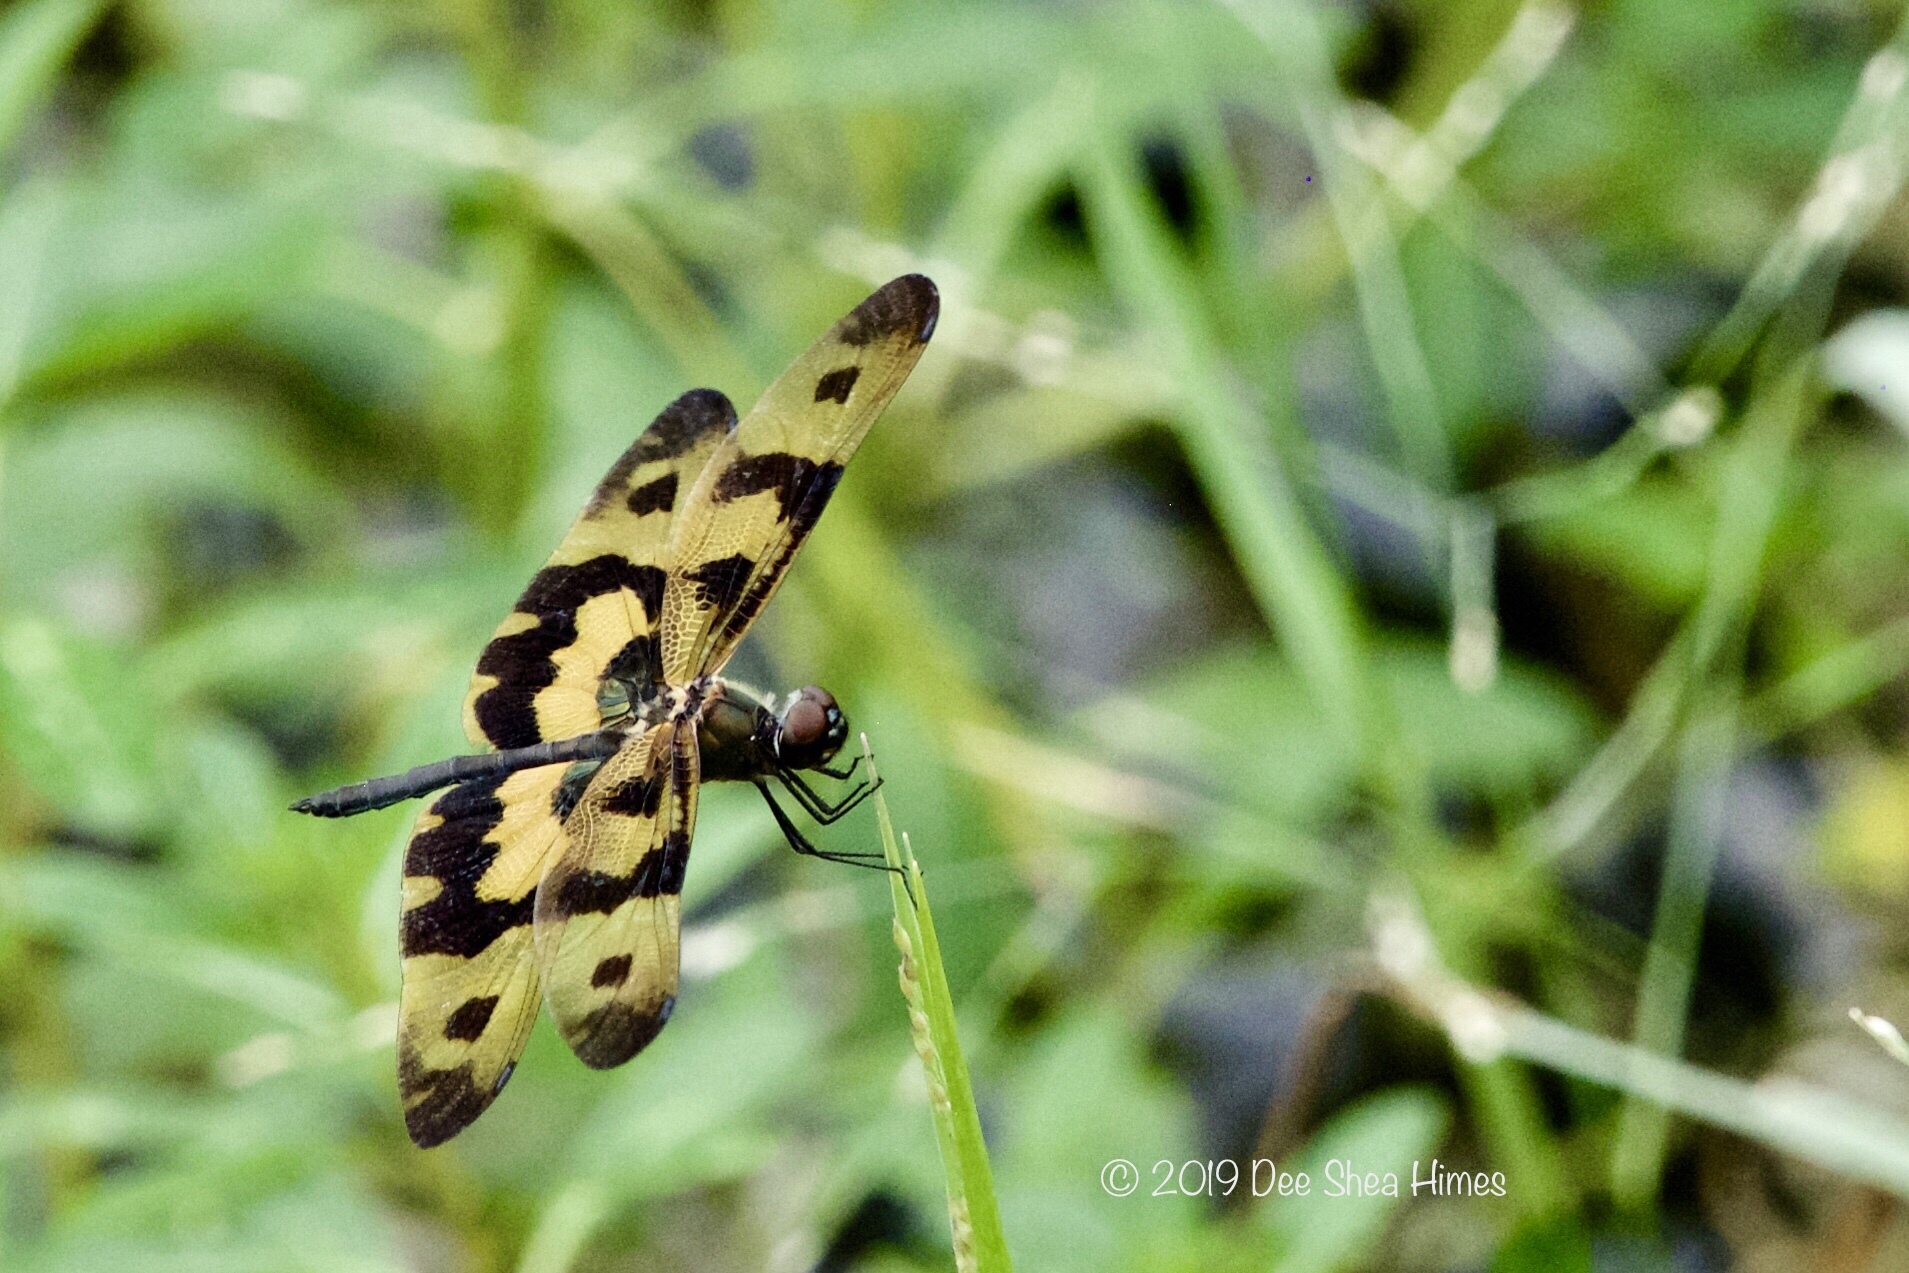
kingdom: Animalia
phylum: Arthropoda
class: Insecta
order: Odonata
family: Libellulidae
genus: Rhyothemis
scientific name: Rhyothemis variegata
